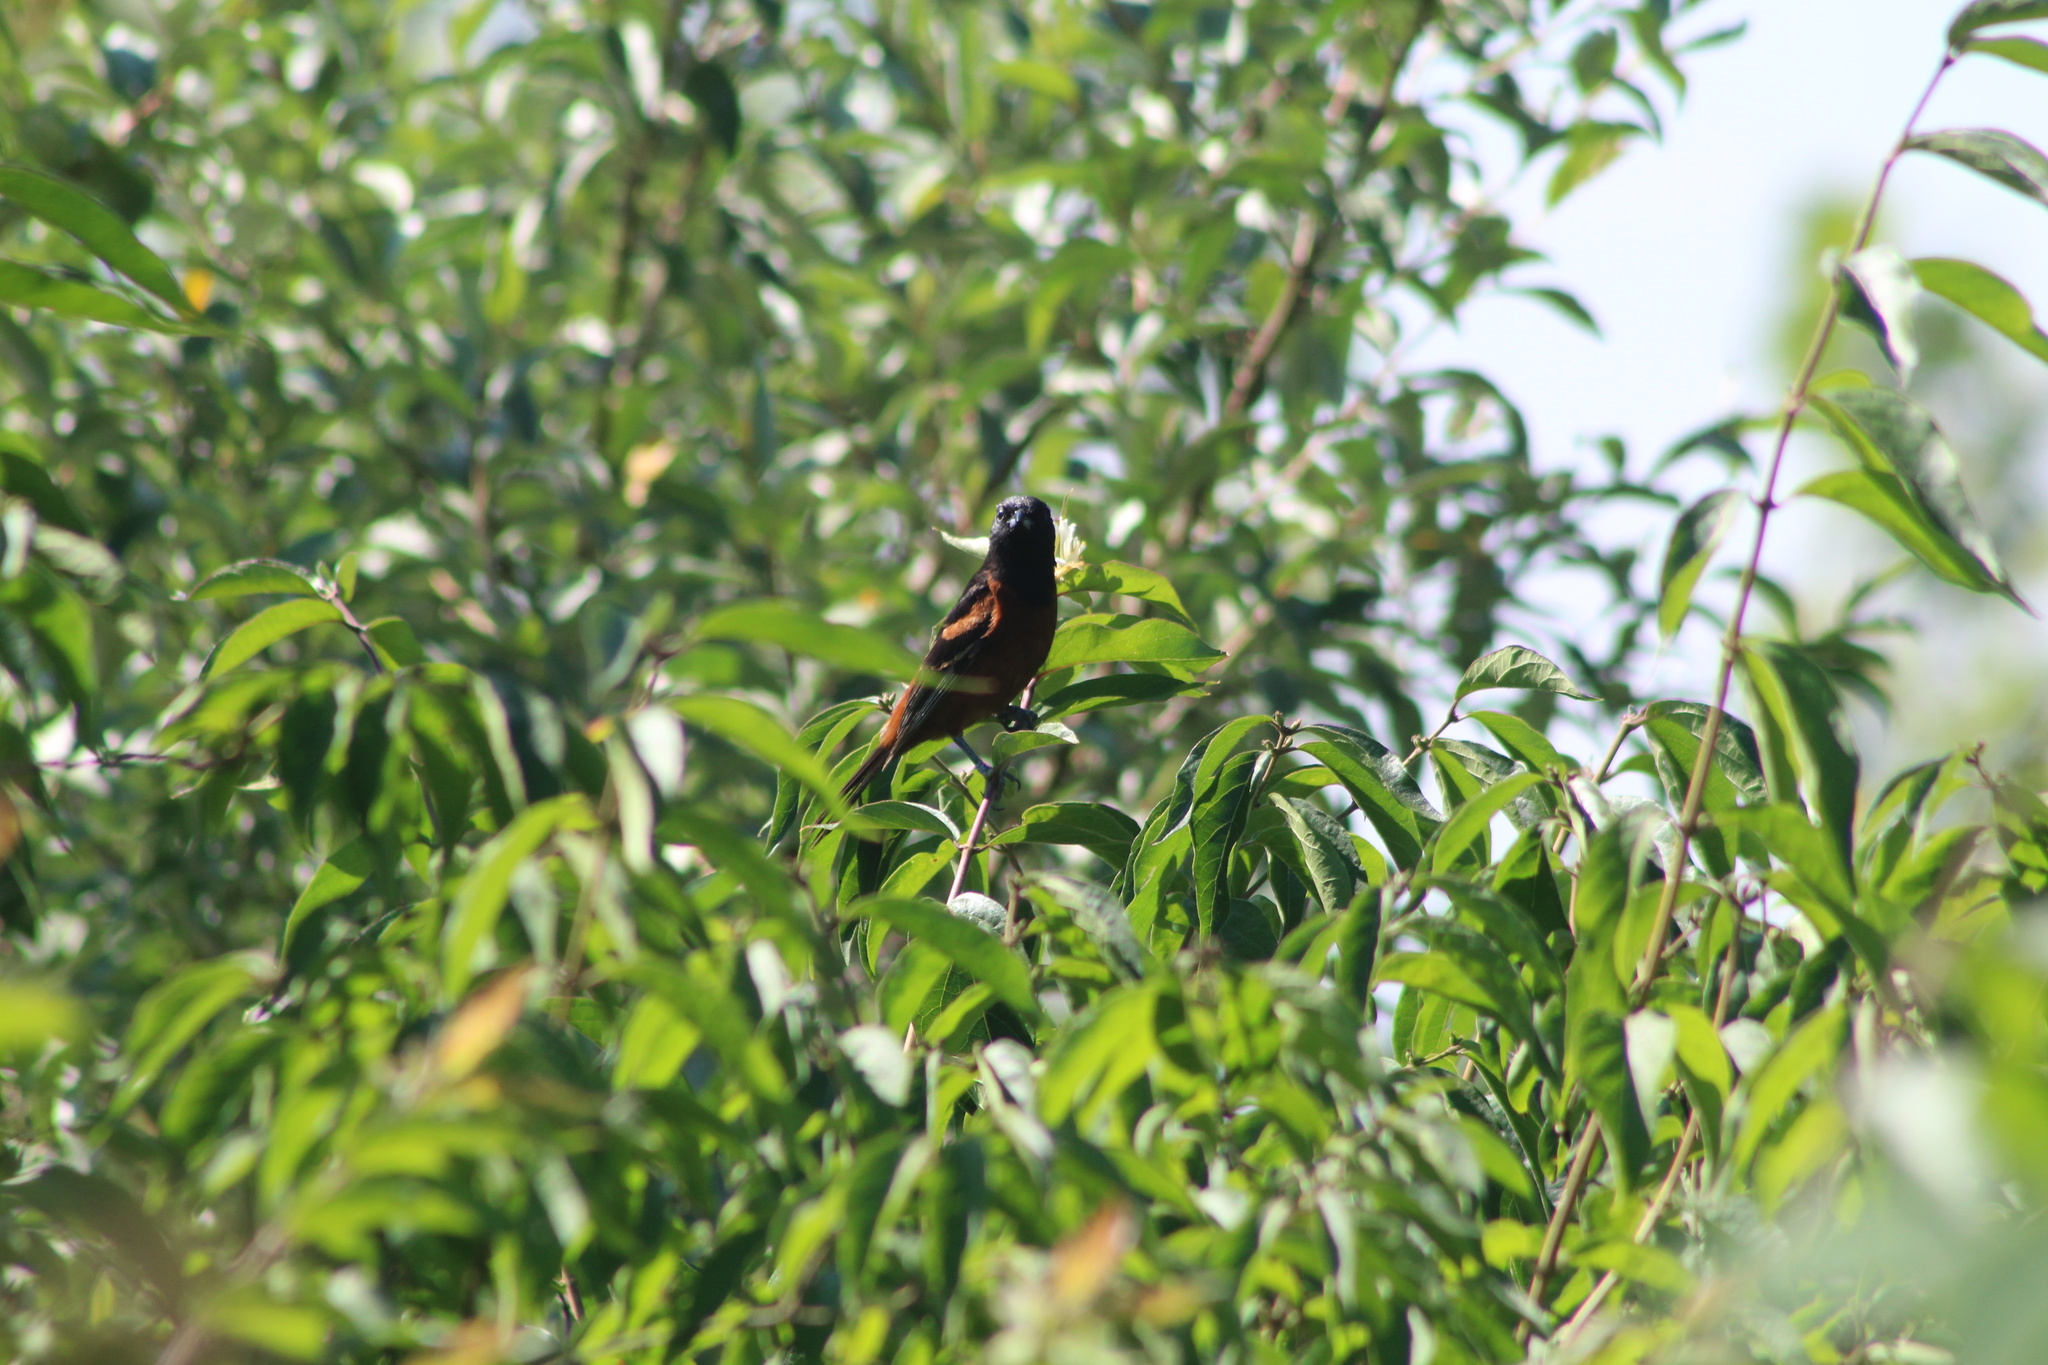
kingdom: Animalia
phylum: Chordata
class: Aves
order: Passeriformes
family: Icteridae
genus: Icterus
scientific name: Icterus spurius
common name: Orchard oriole
